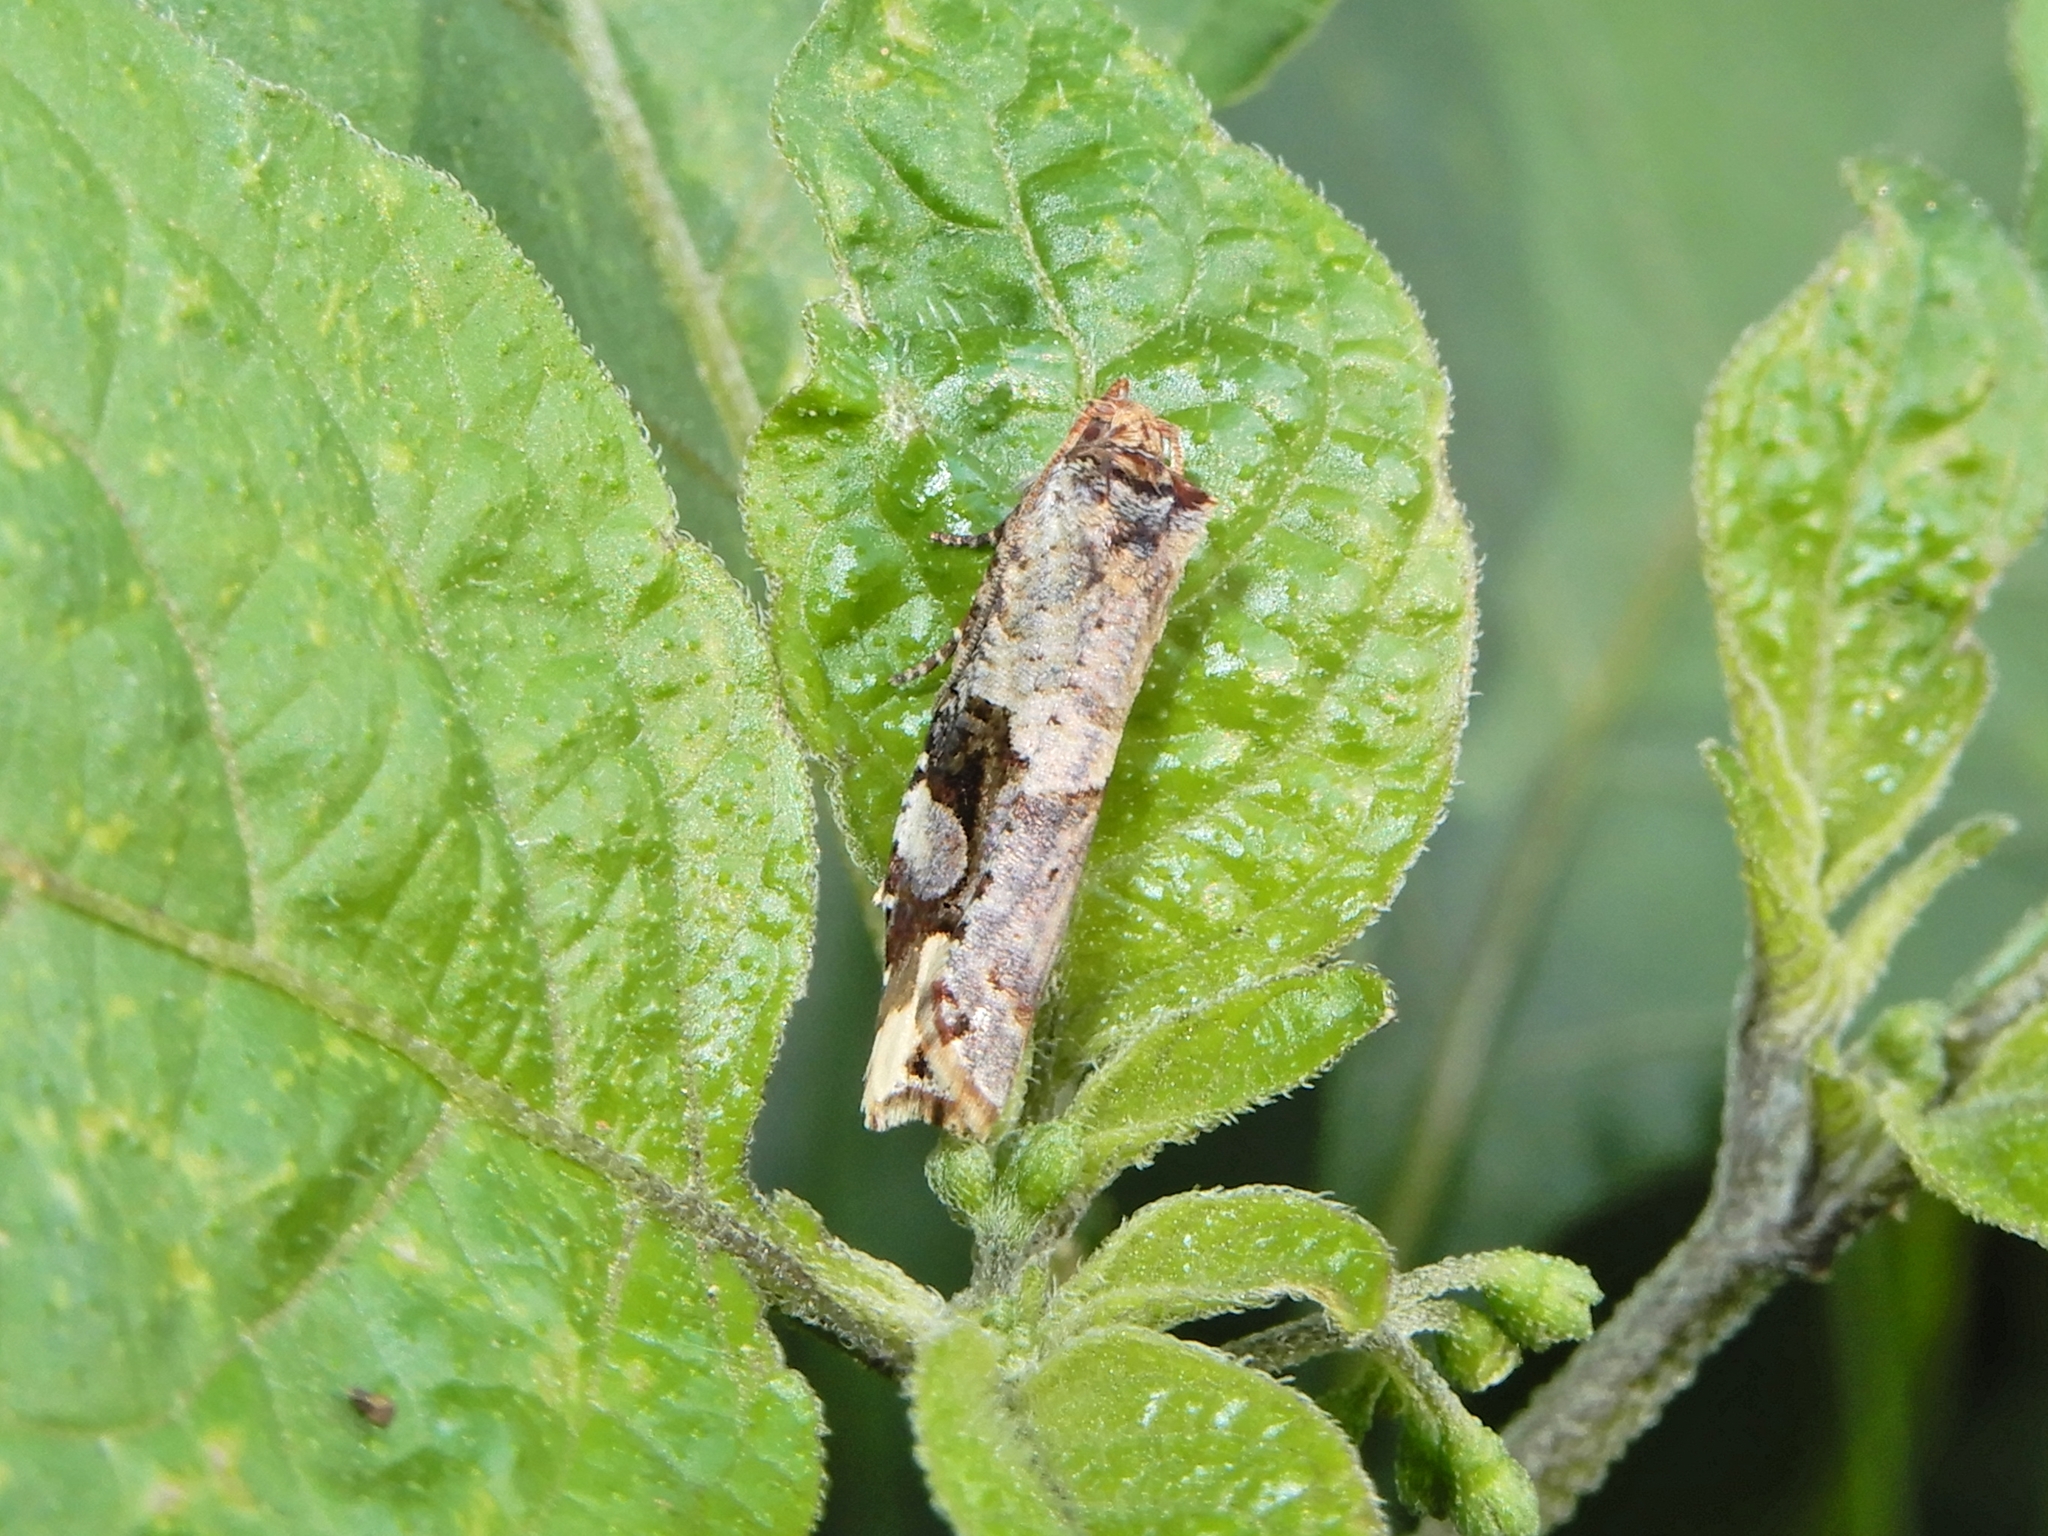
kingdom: Animalia
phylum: Arthropoda
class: Insecta
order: Lepidoptera
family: Tortricidae
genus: Epalxiphora
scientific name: Epalxiphora axenana
